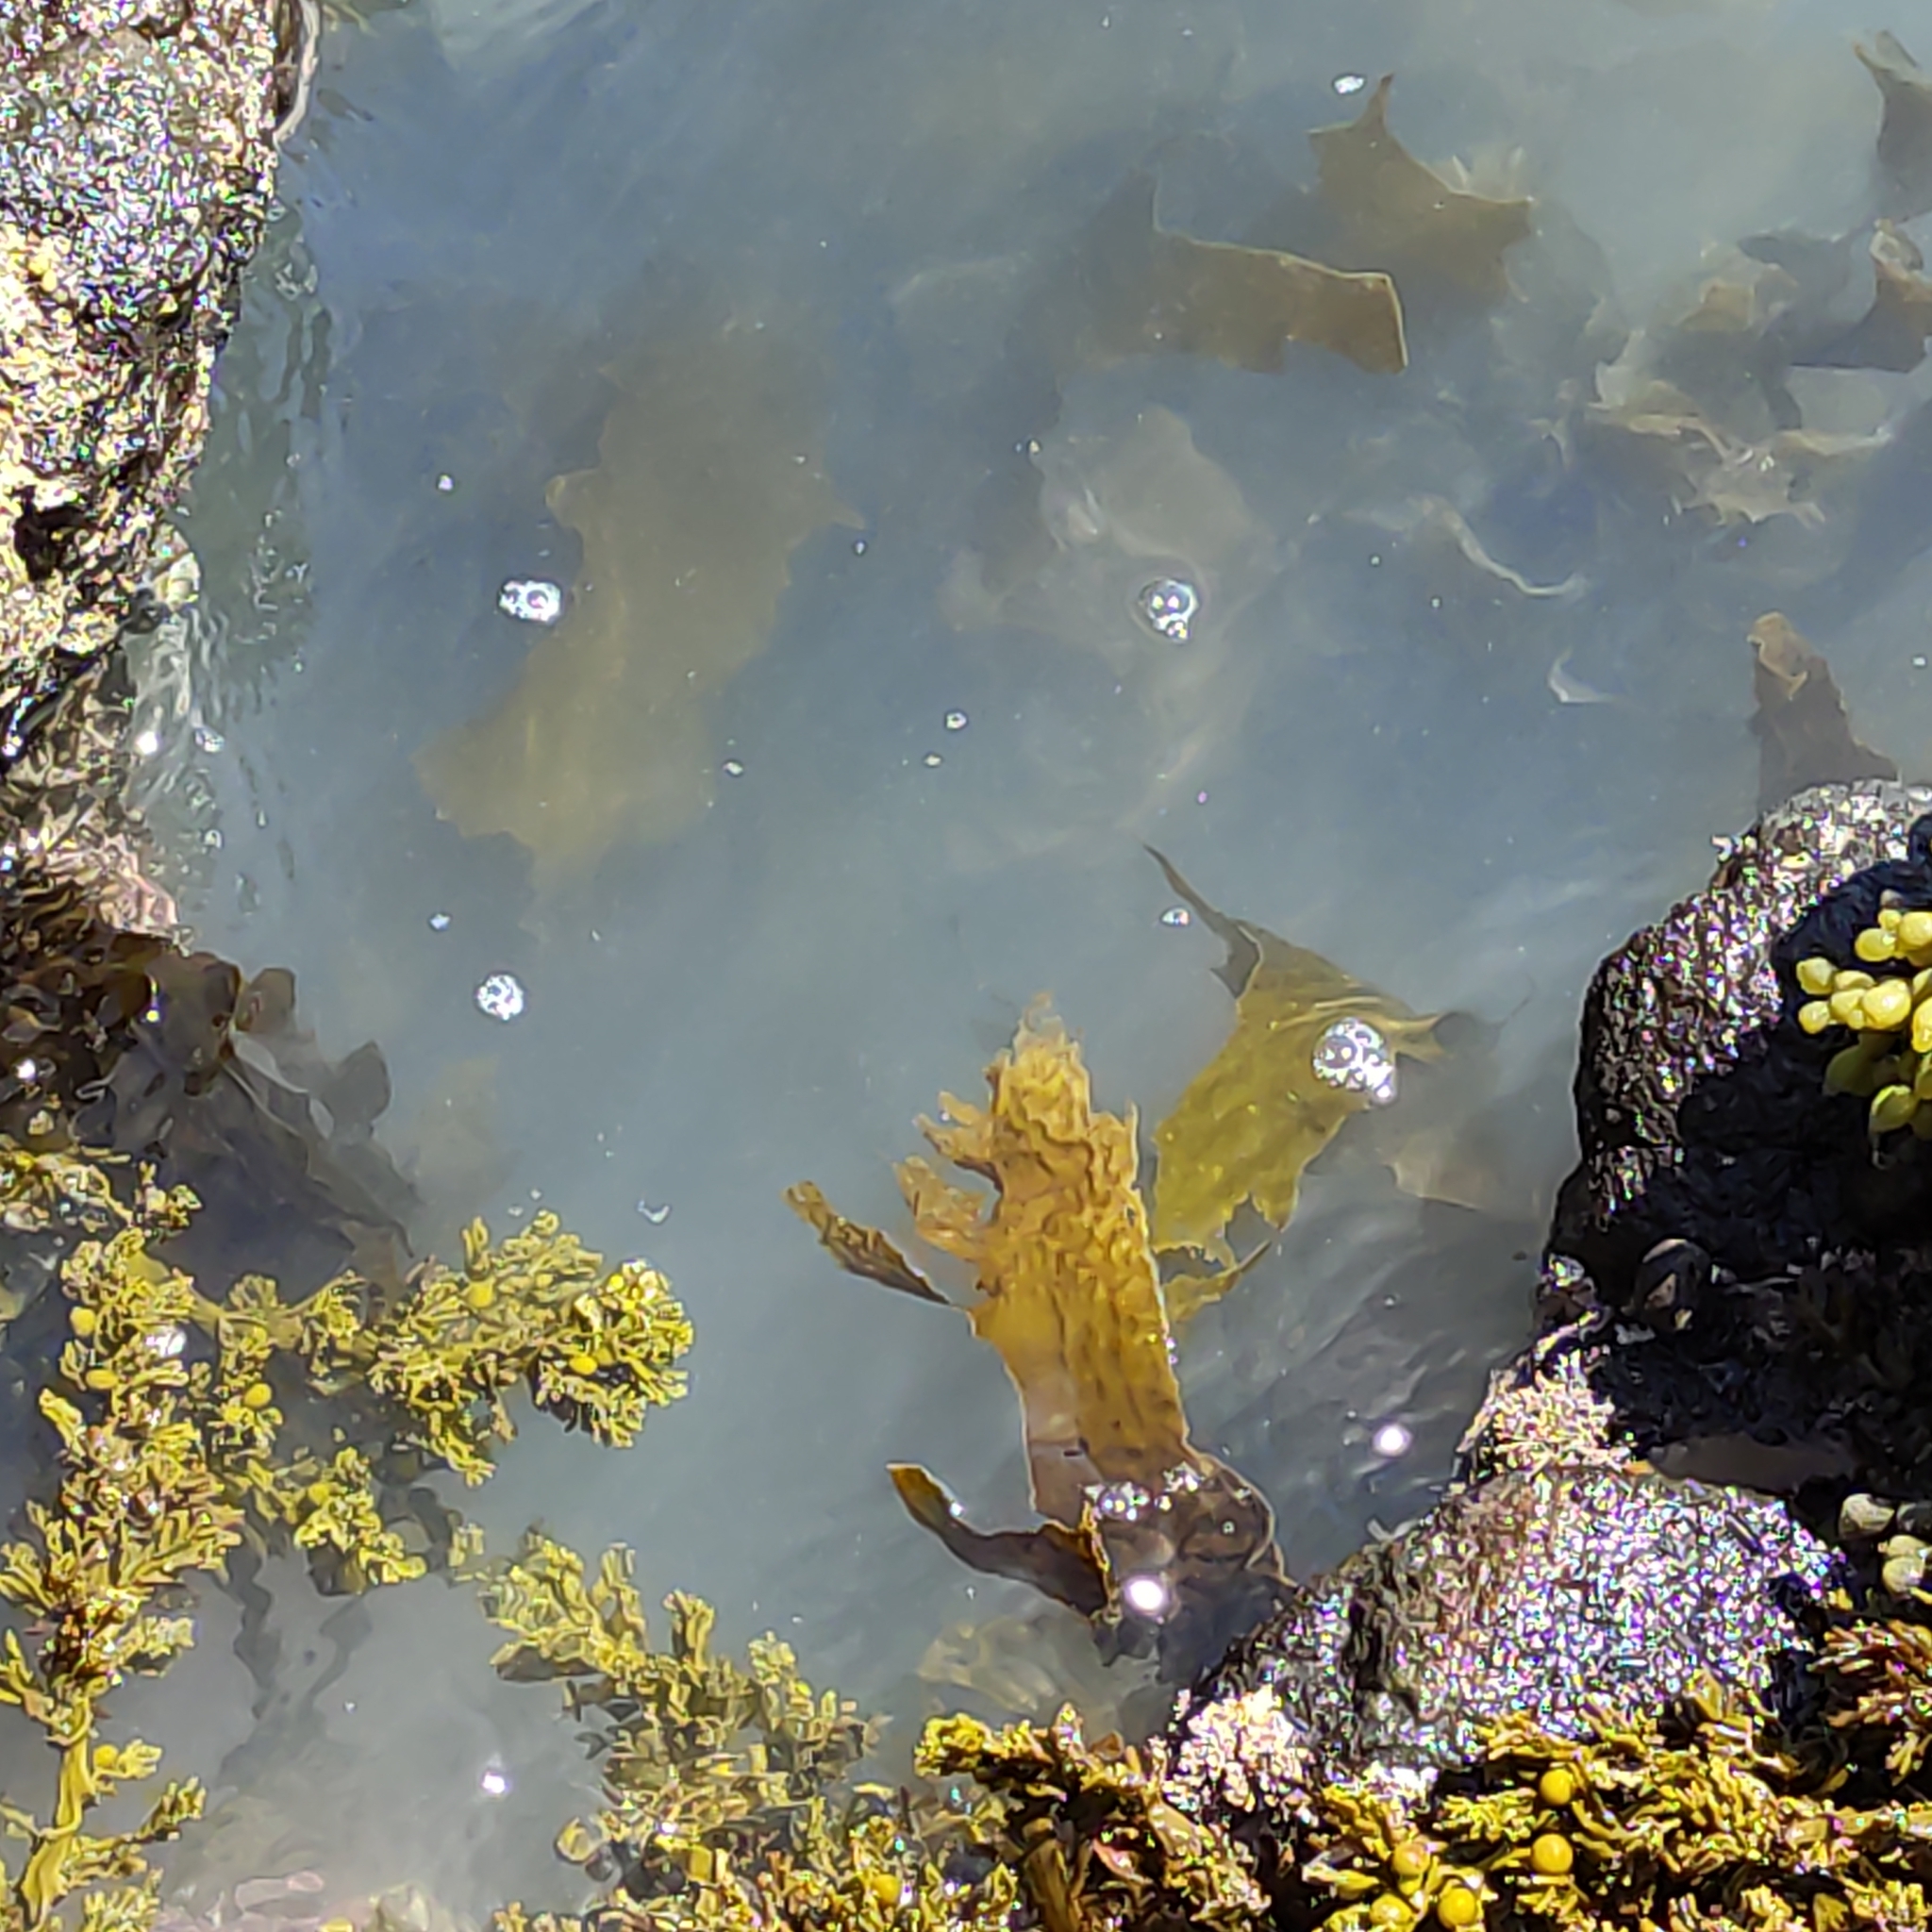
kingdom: Chromista
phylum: Ochrophyta
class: Phaeophyceae
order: Laminariales
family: Lessoniaceae
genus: Ecklonia
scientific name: Ecklonia radiata
